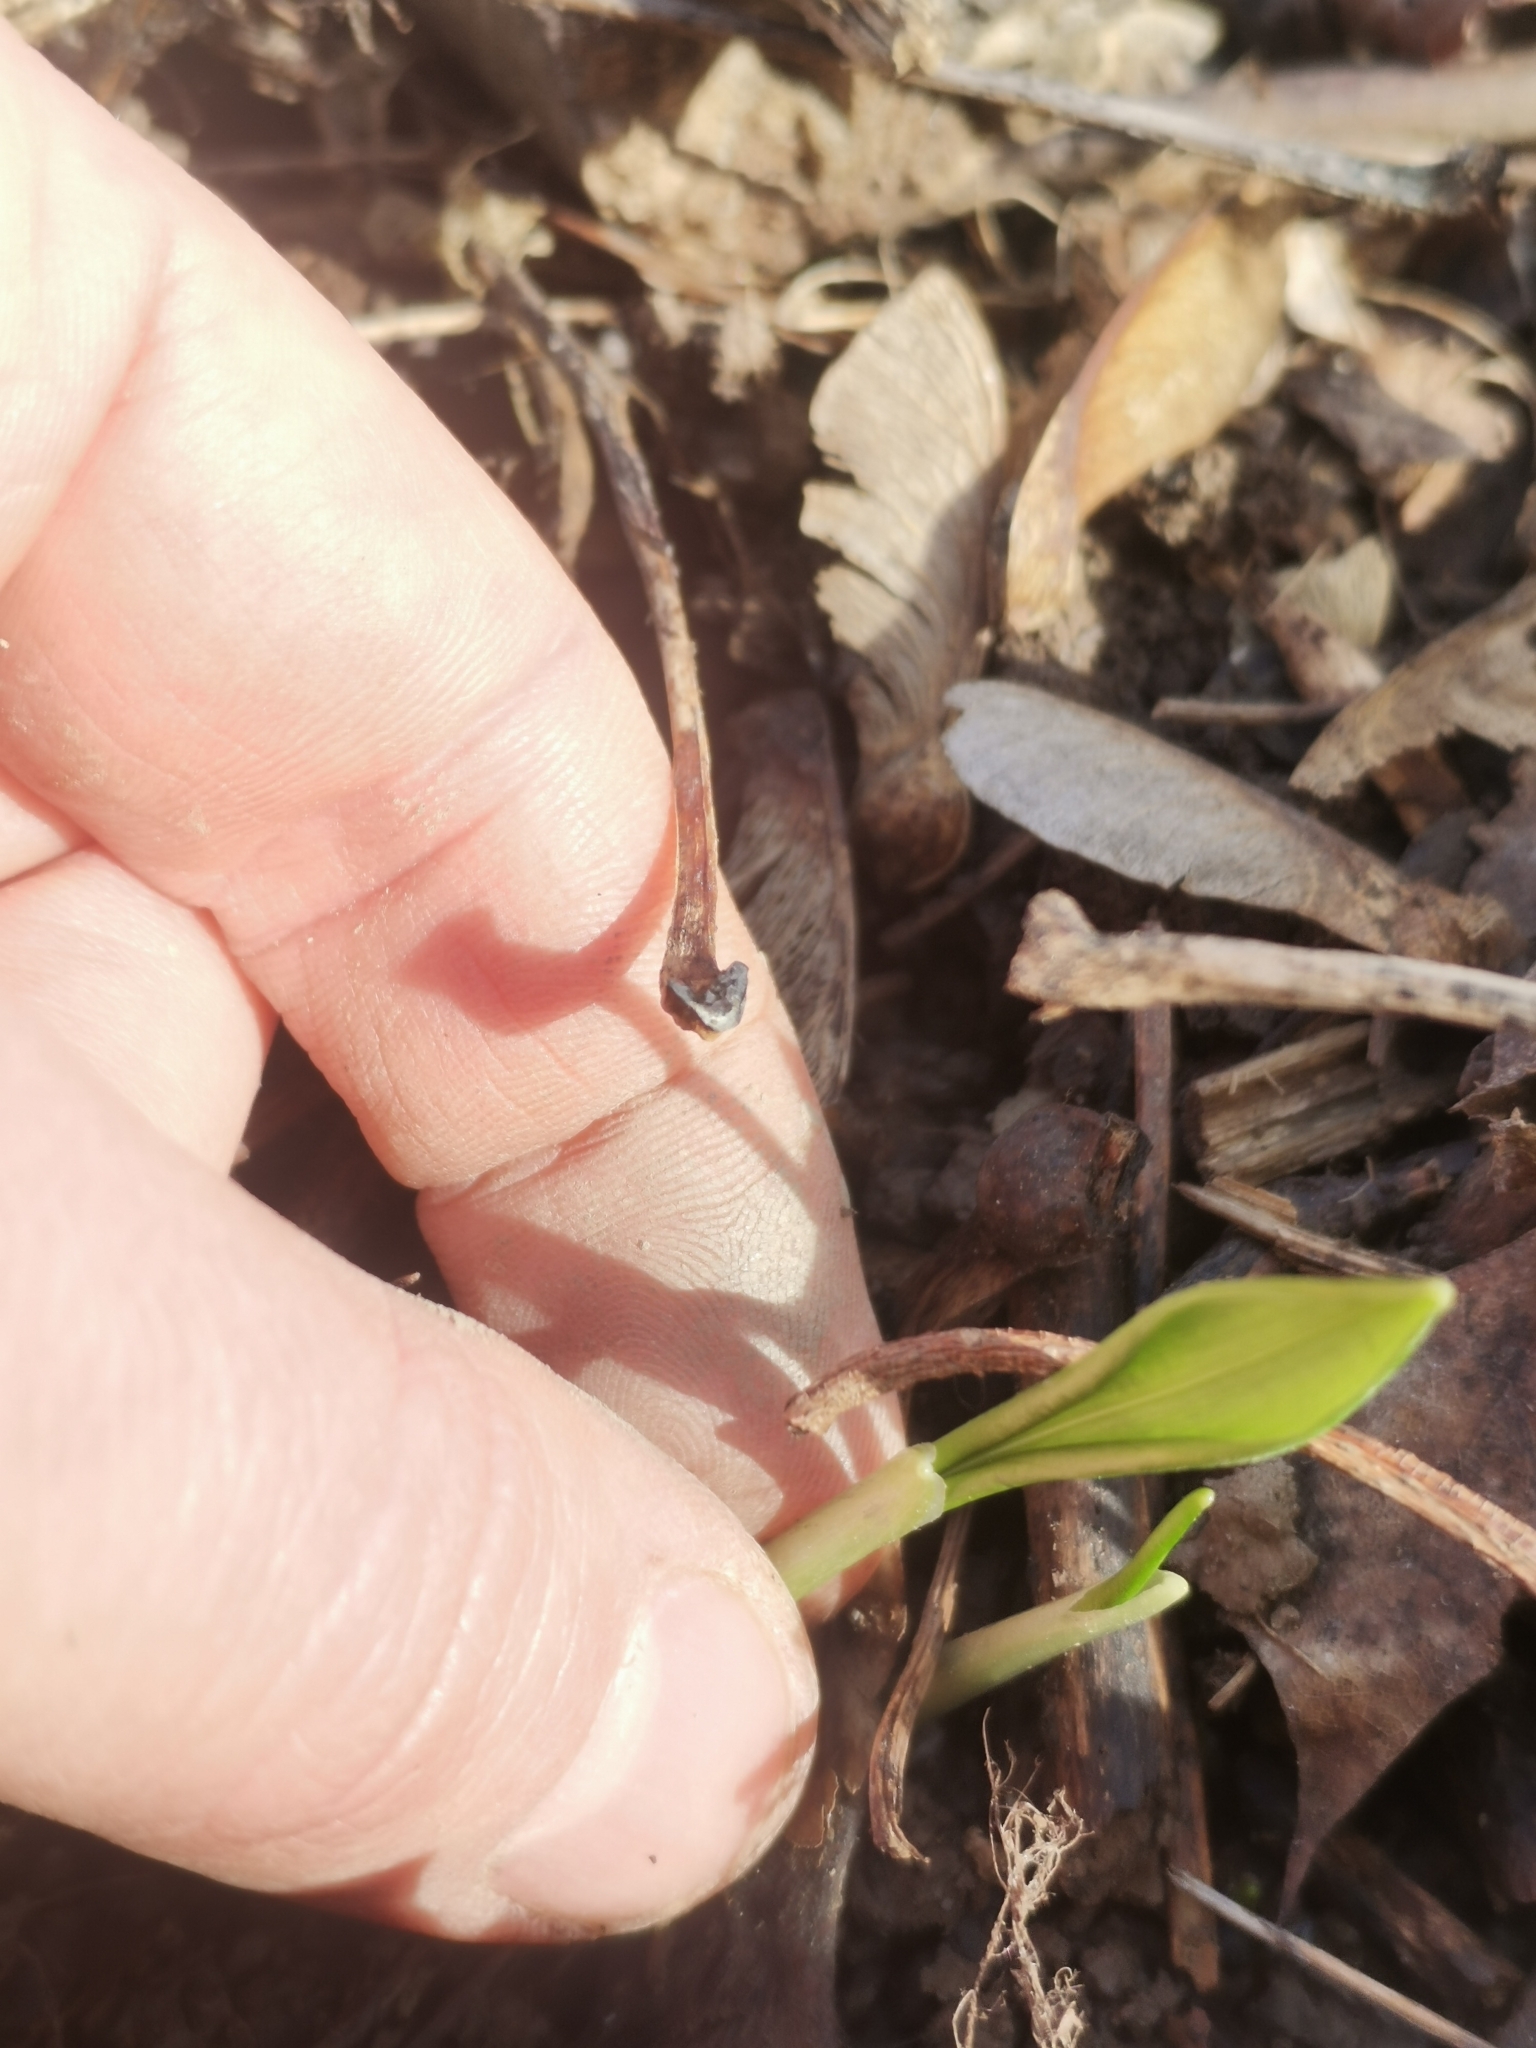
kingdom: Plantae
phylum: Tracheophyta
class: Liliopsida
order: Asparagales
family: Amaryllidaceae
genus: Allium
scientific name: Allium ursinum
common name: Ramsons
